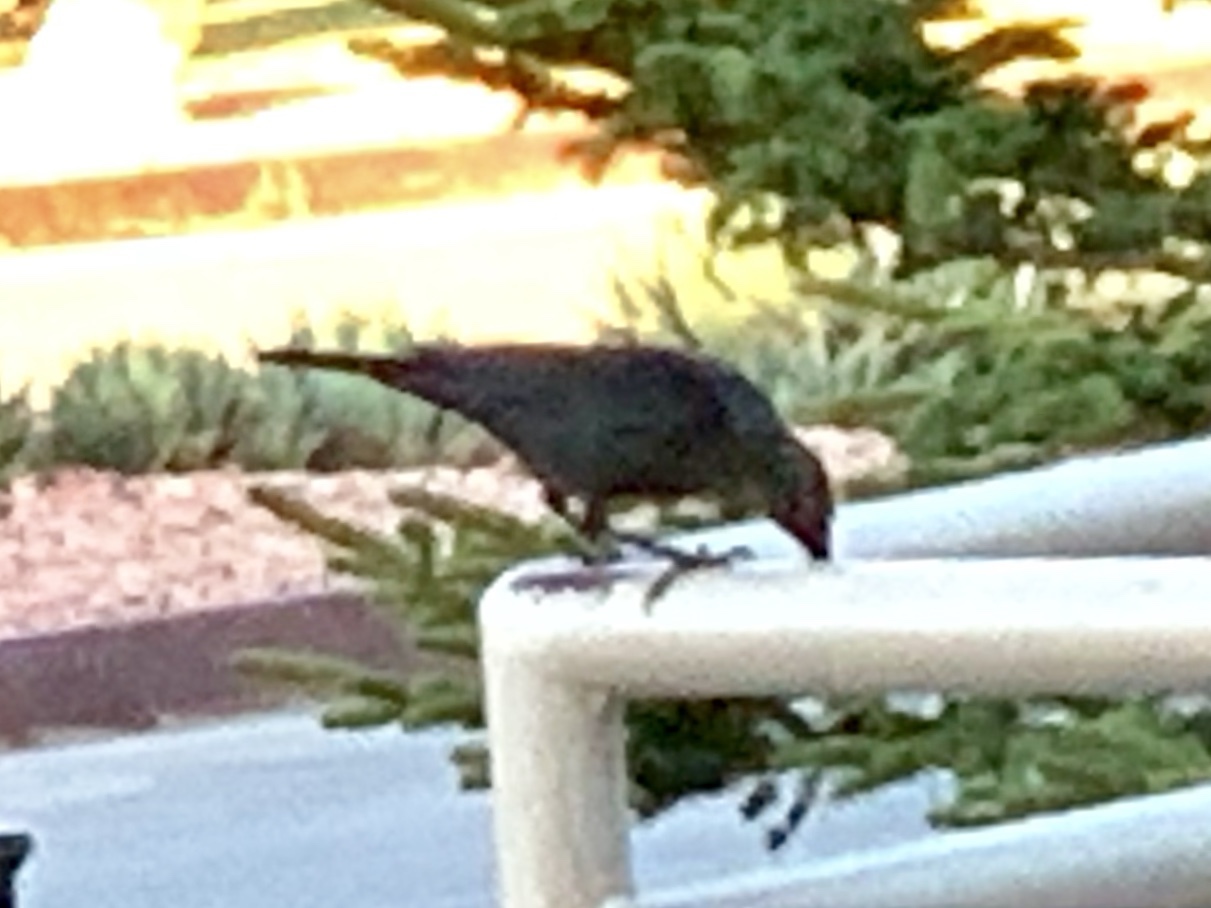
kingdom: Animalia
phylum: Chordata
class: Aves
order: Passeriformes
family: Icteridae
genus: Euphagus
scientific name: Euphagus cyanocephalus
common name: Brewer's blackbird
